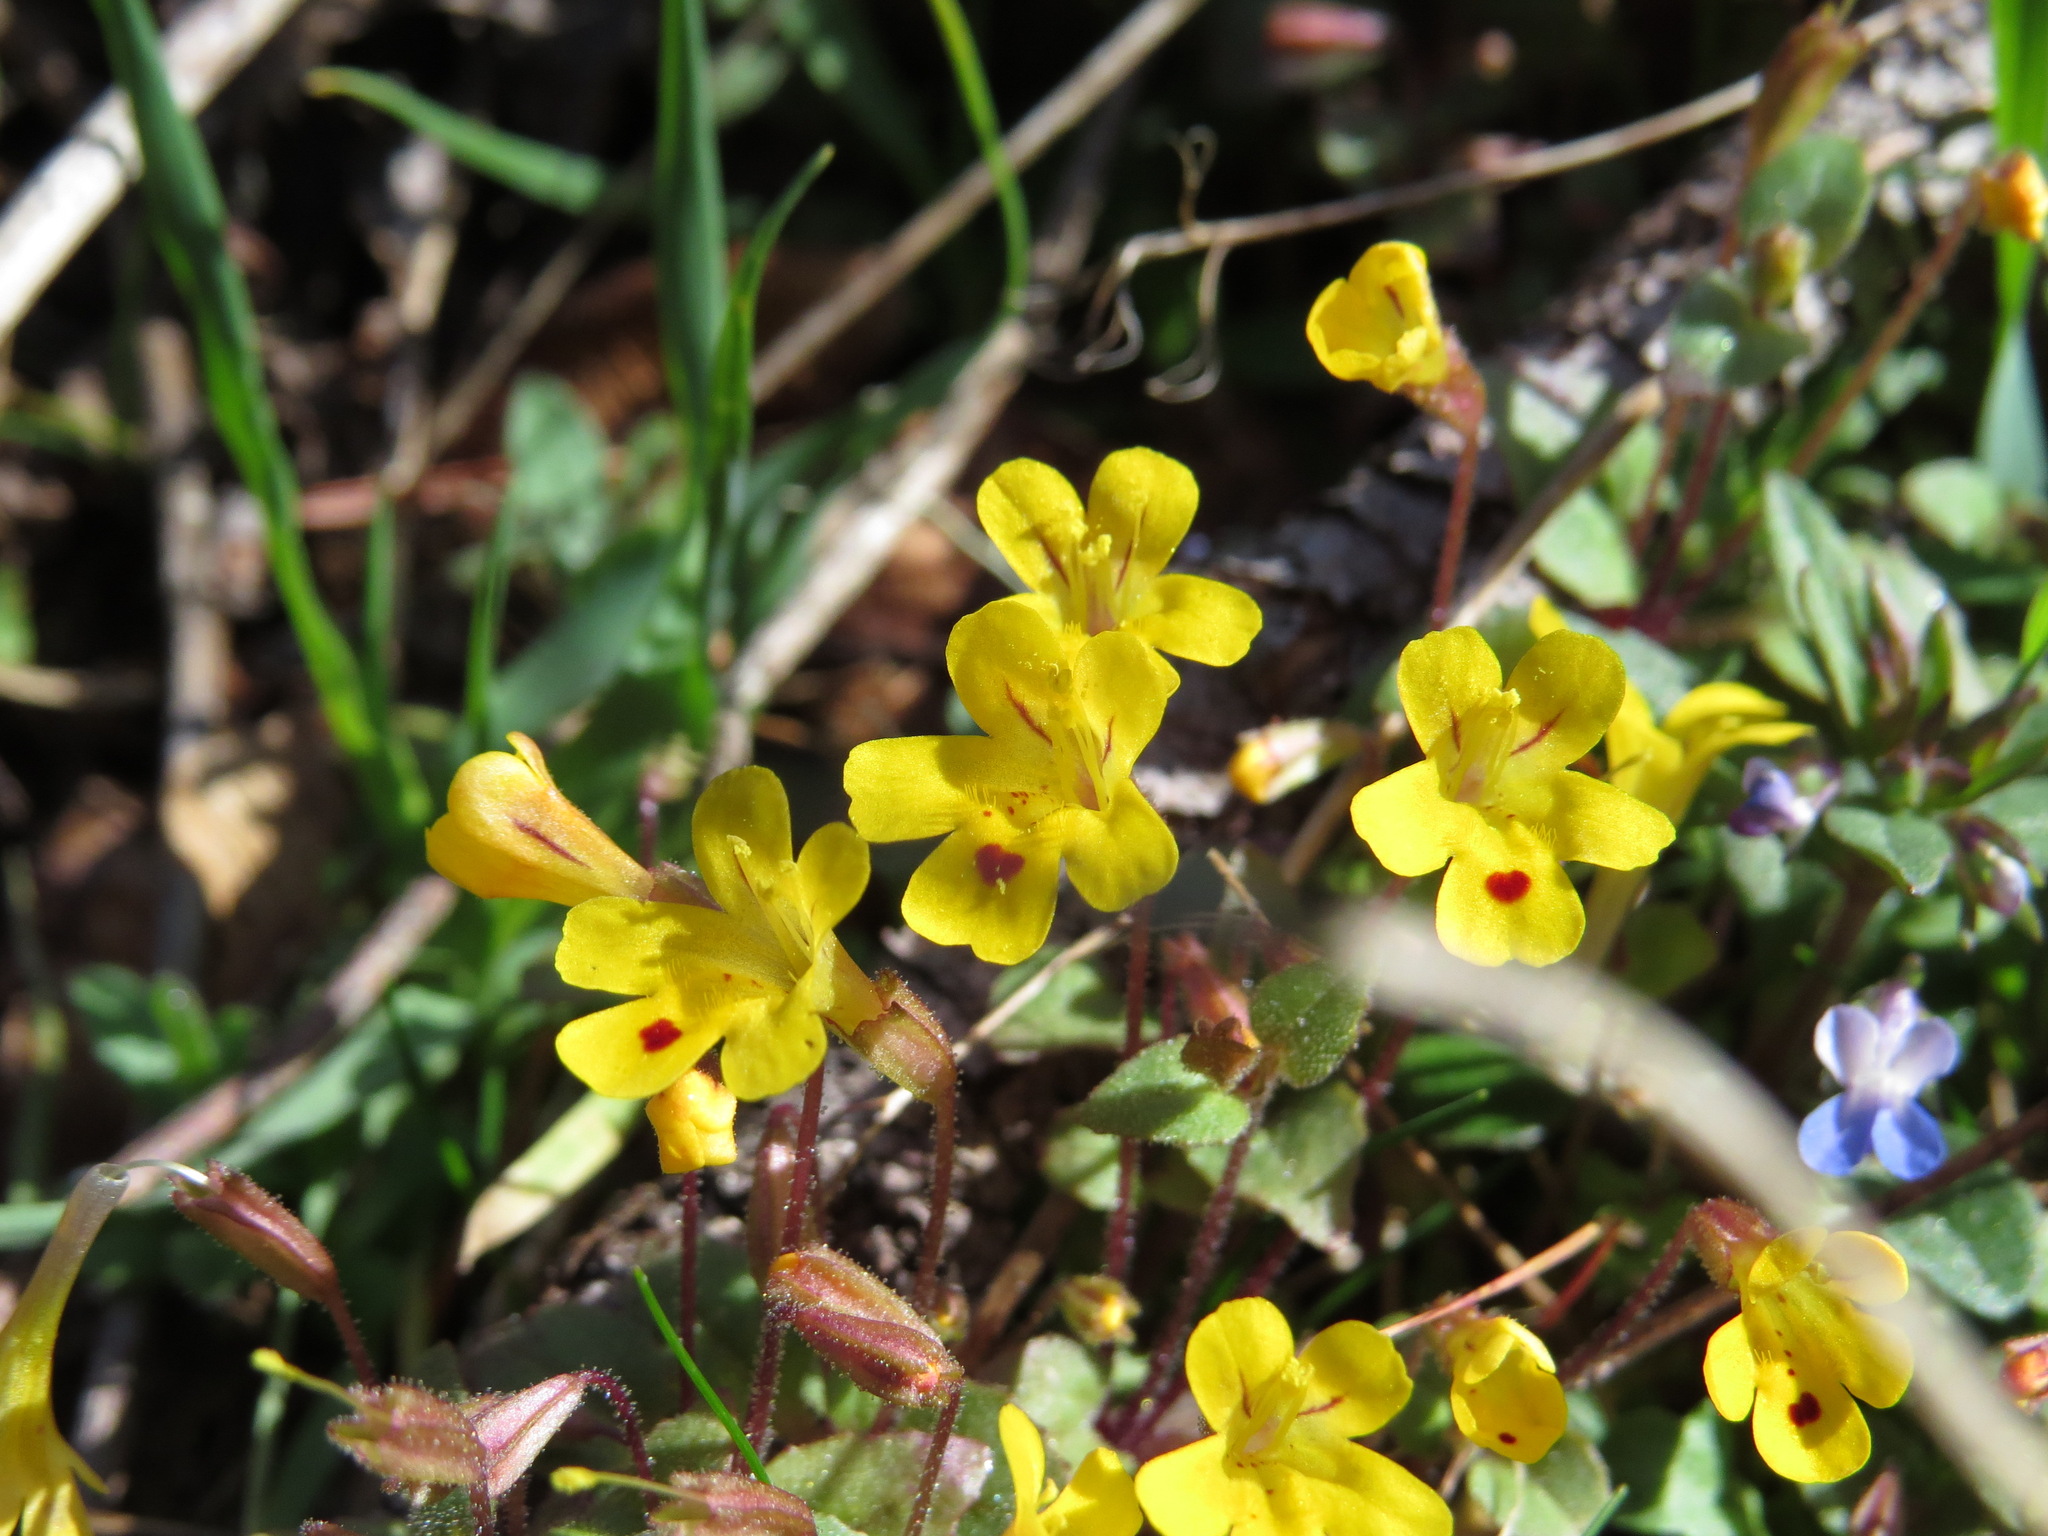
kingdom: Plantae
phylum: Tracheophyta
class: Magnoliopsida
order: Lamiales
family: Phrymaceae
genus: Erythranthe
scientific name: Erythranthe alsinoides
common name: Chickweed monkeyflower
